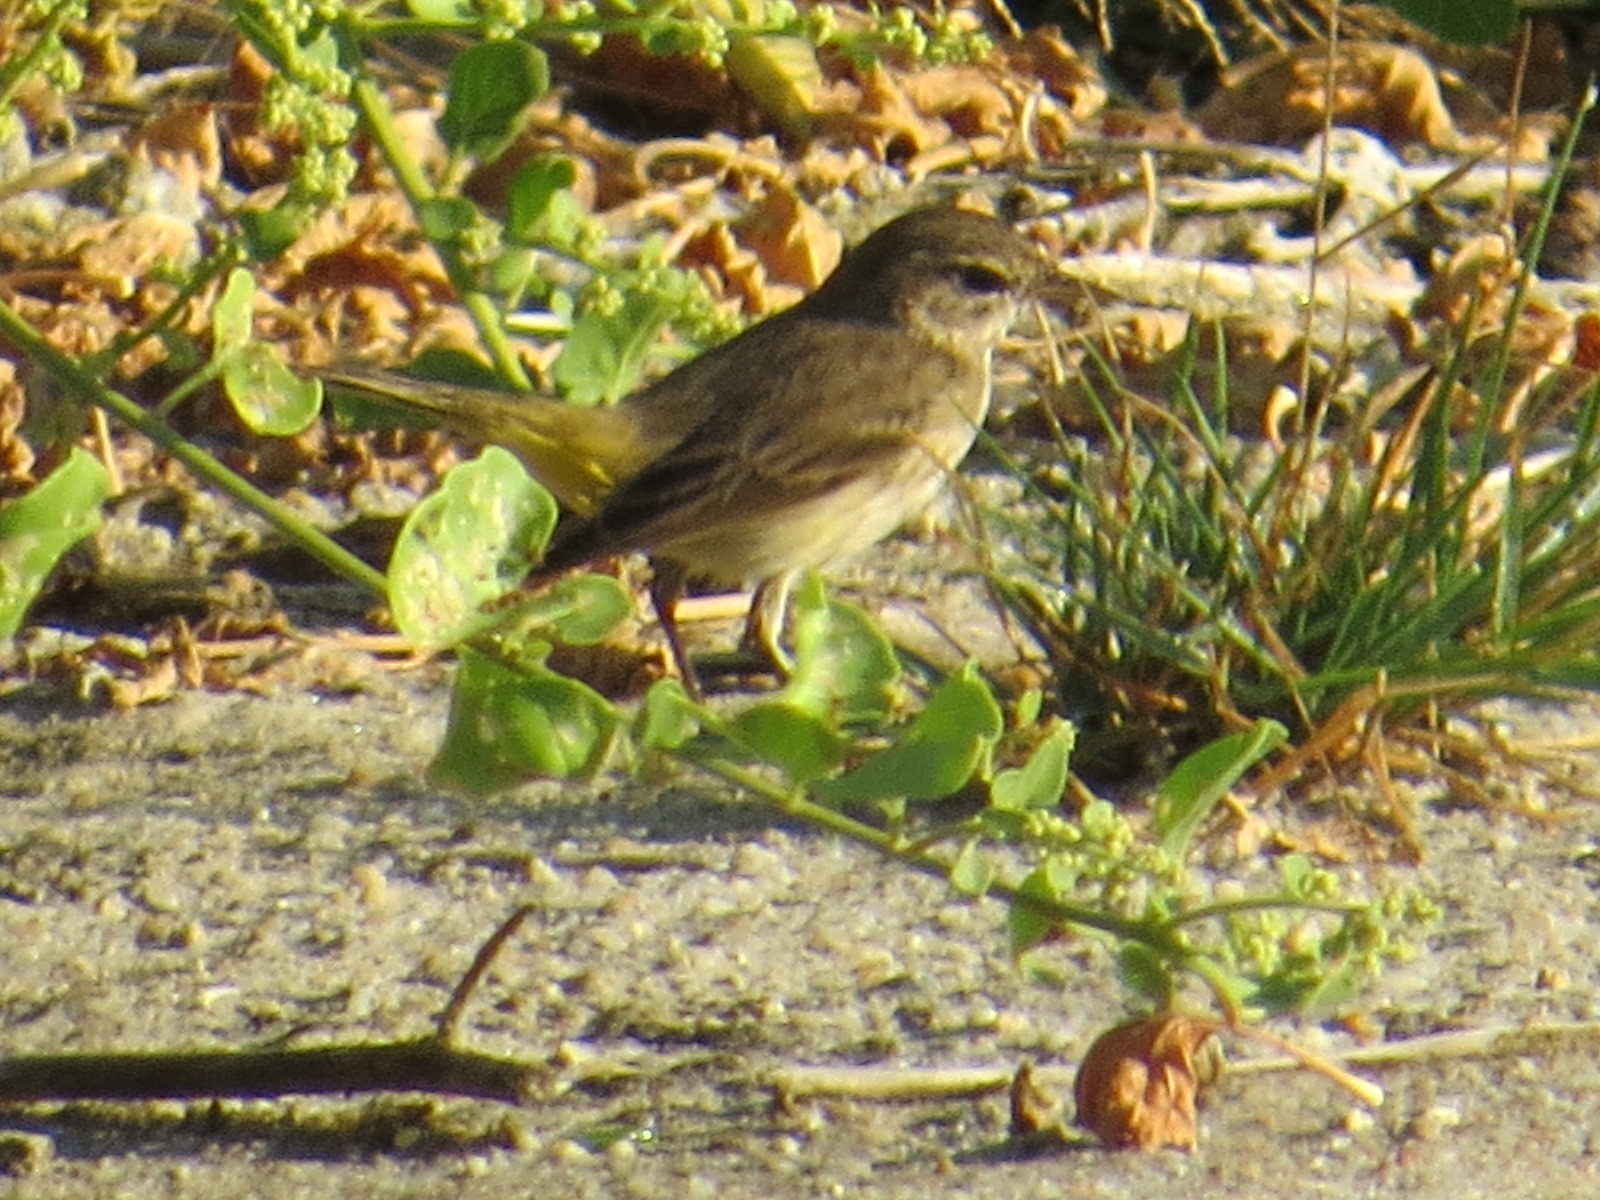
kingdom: Animalia
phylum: Chordata
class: Aves
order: Passeriformes
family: Parulidae
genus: Setophaga
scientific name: Setophaga palmarum
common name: Palm warbler
